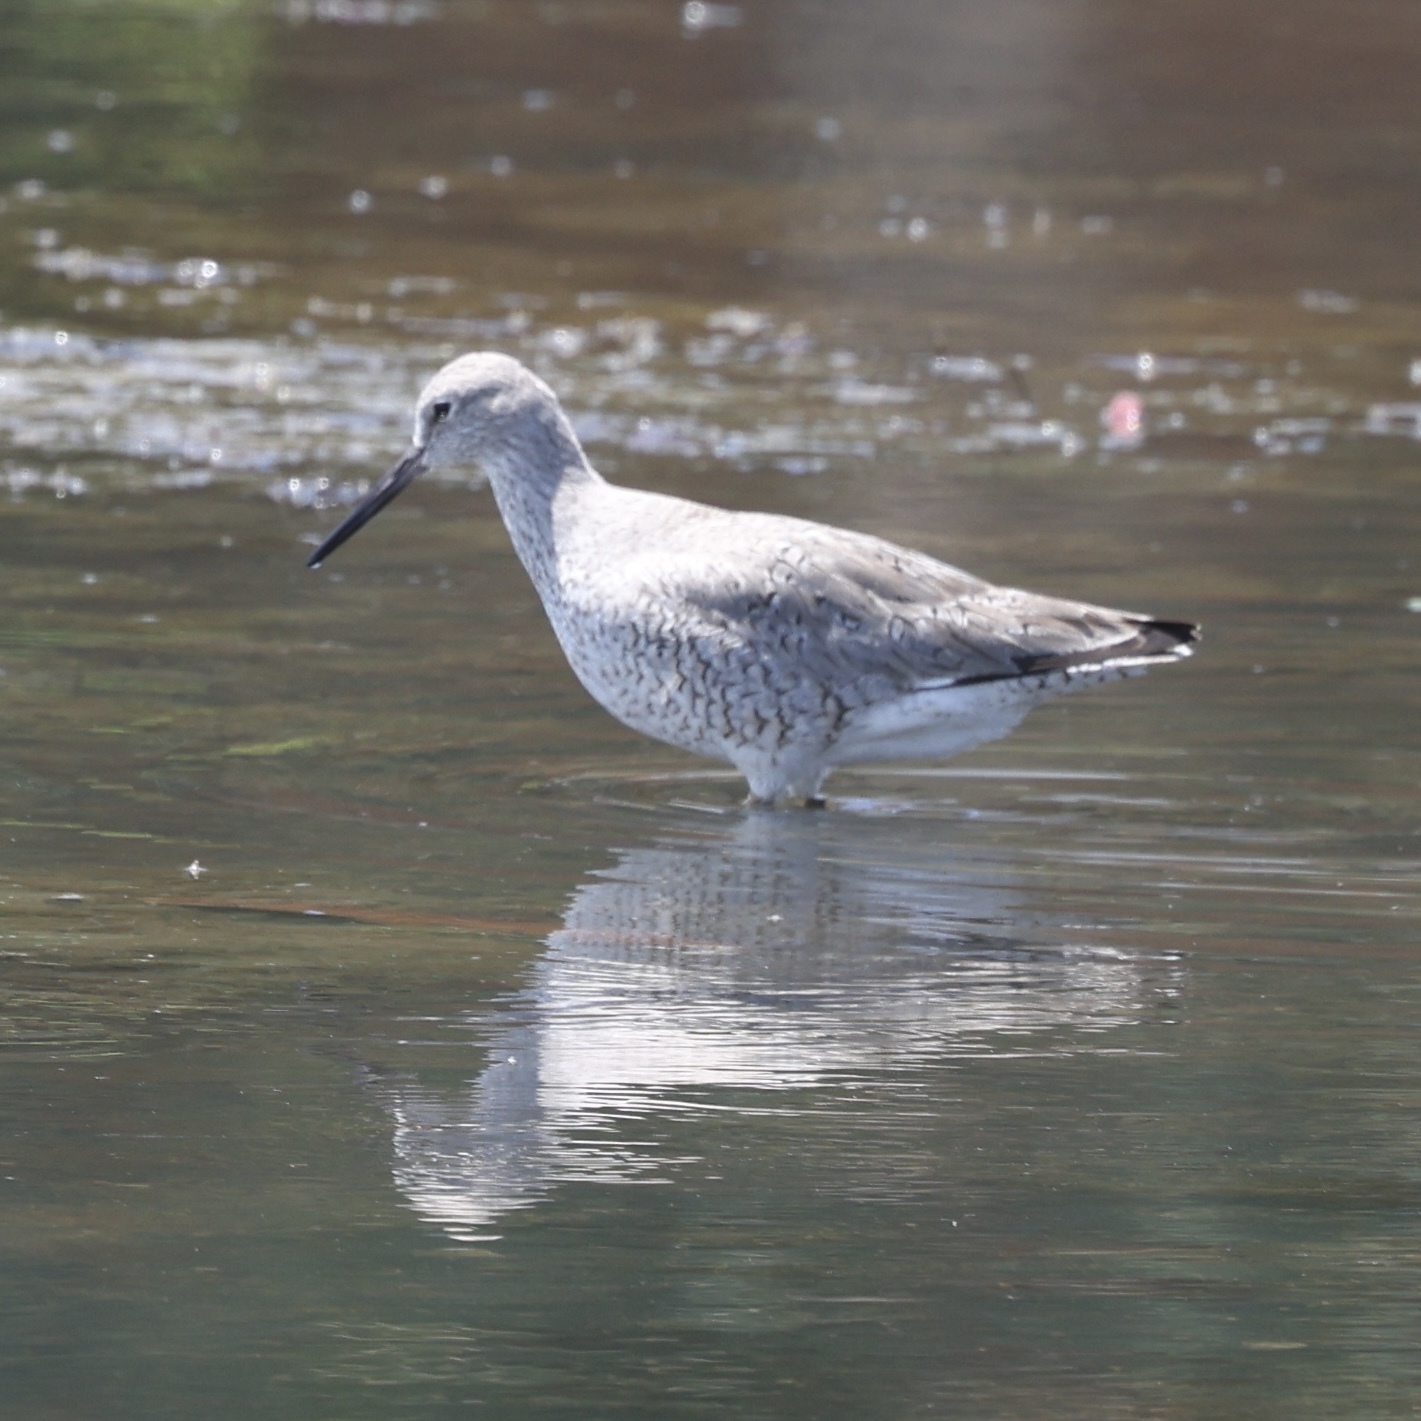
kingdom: Animalia
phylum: Chordata
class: Aves
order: Charadriiformes
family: Scolopacidae
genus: Tringa
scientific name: Tringa semipalmata
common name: Willet
